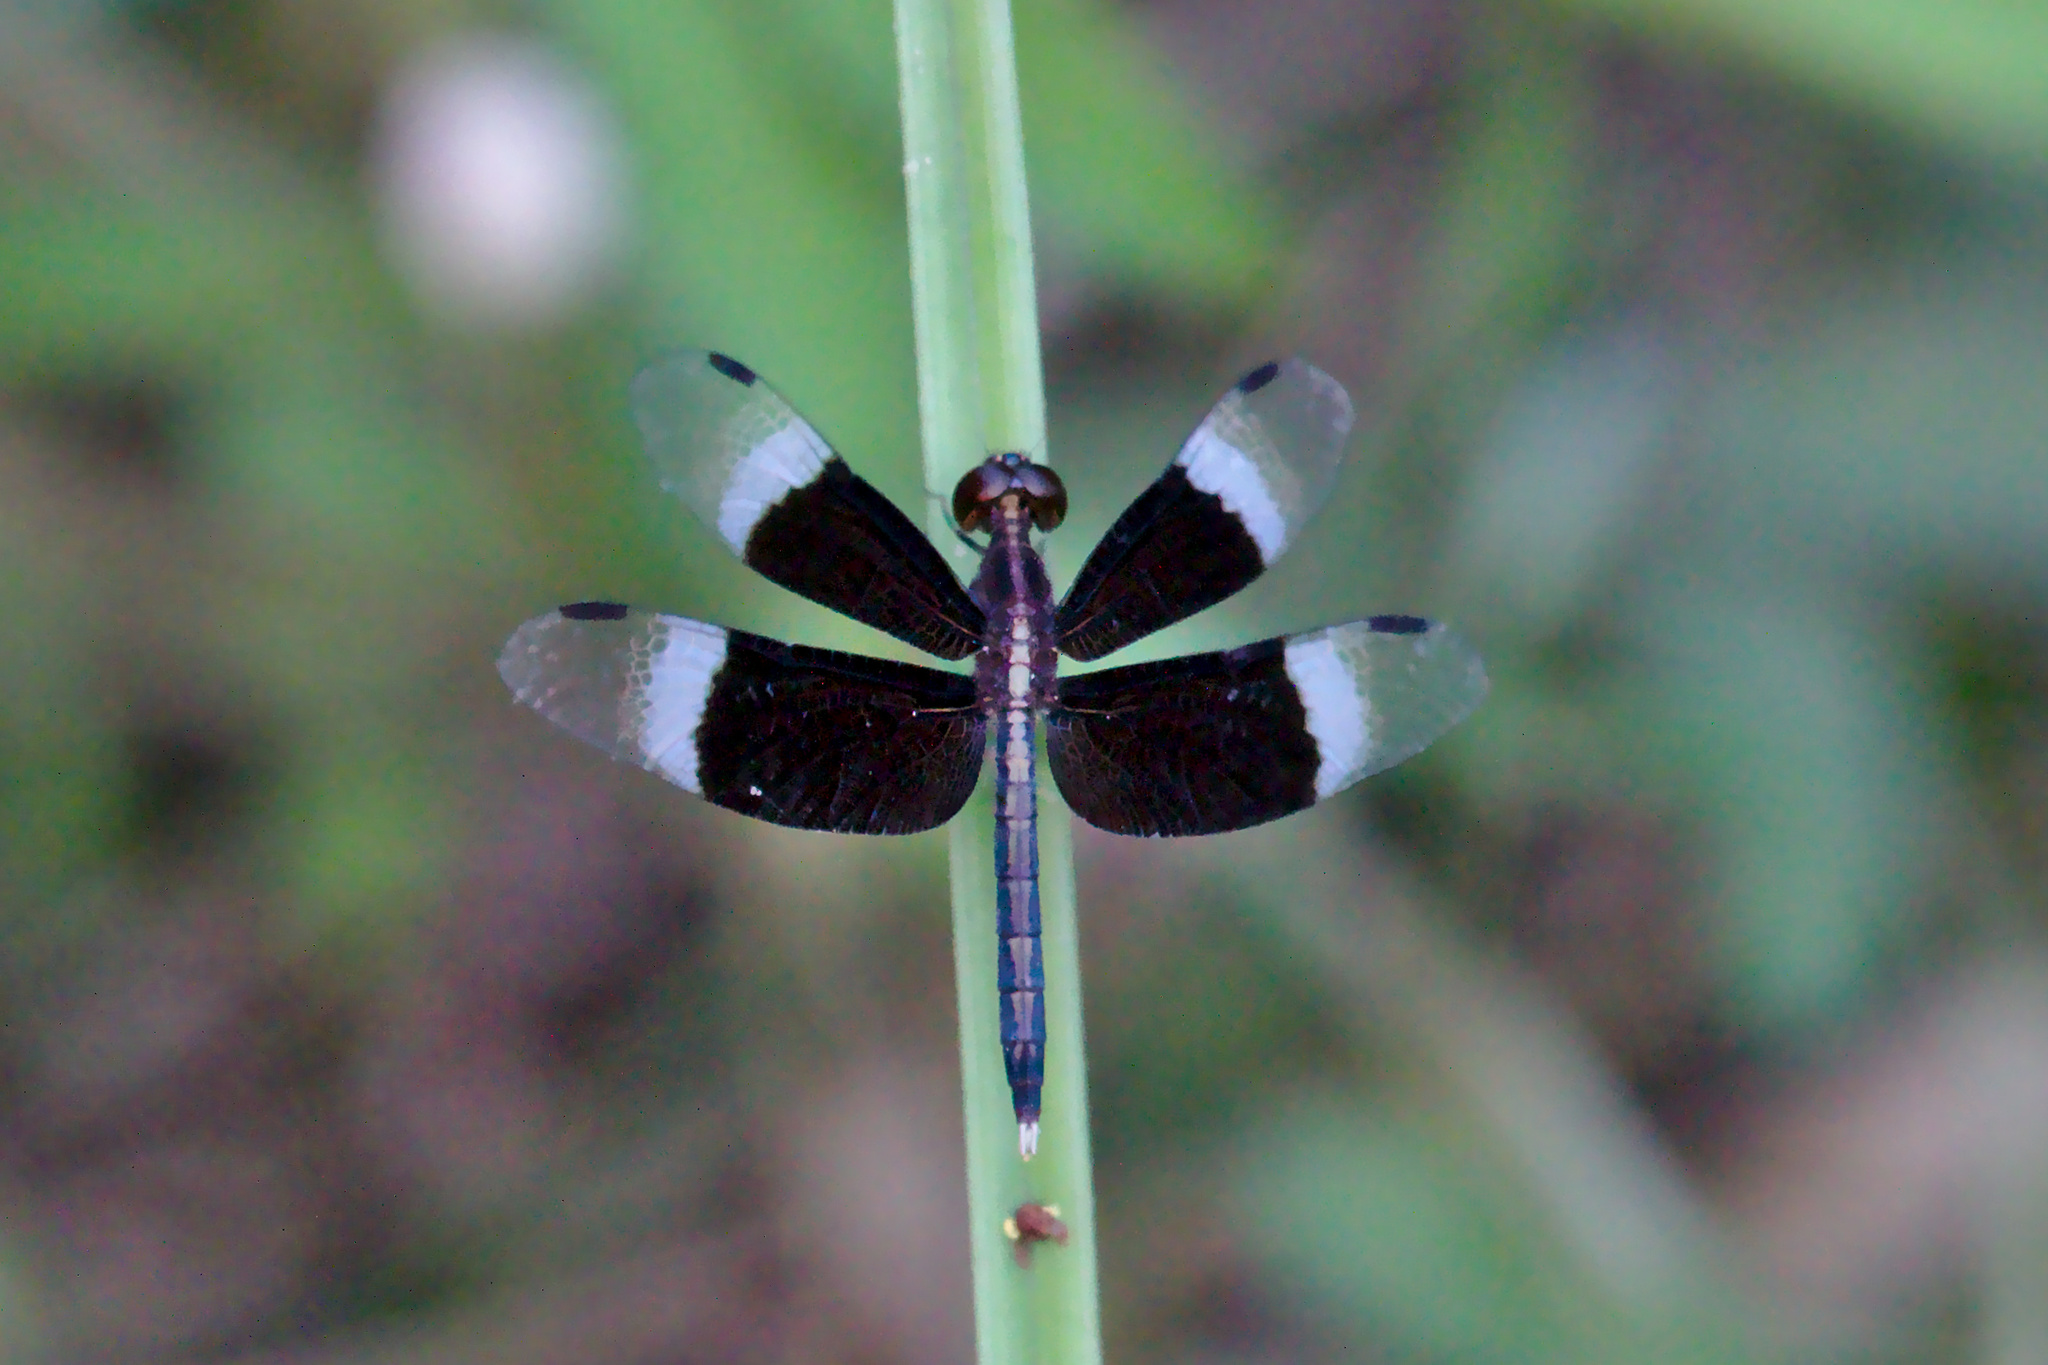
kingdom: Animalia
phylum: Arthropoda
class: Insecta
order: Odonata
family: Libellulidae
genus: Neurothemis
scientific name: Neurothemis tullia
